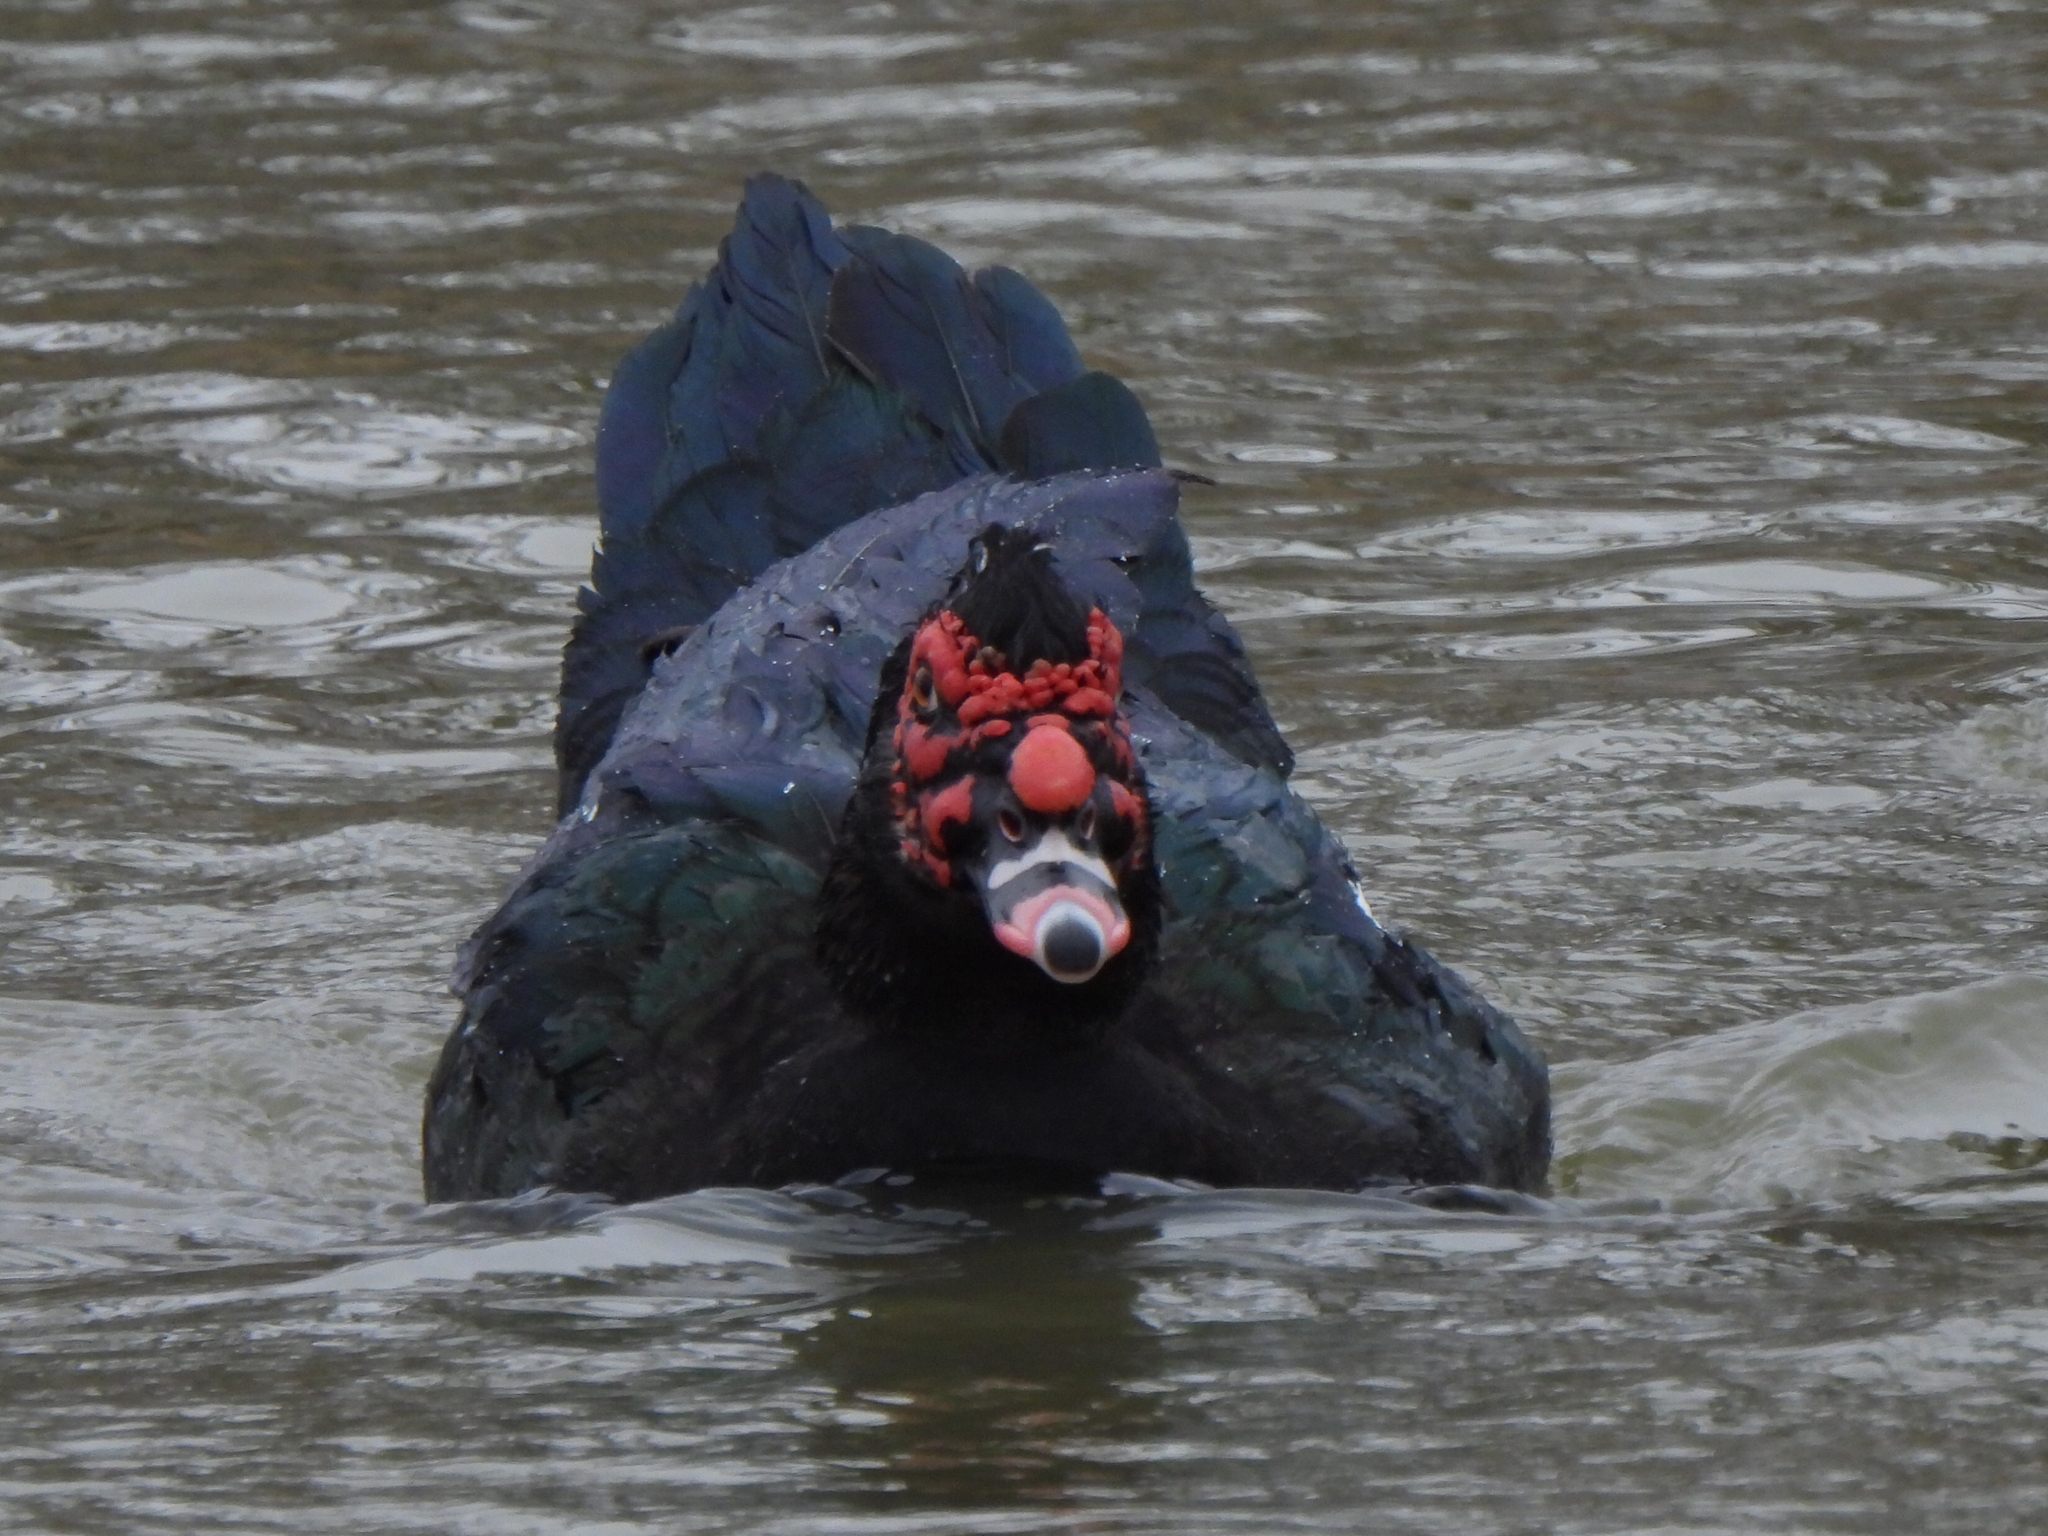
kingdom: Animalia
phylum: Chordata
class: Aves
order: Anseriformes
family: Anatidae
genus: Cairina
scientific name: Cairina moschata
